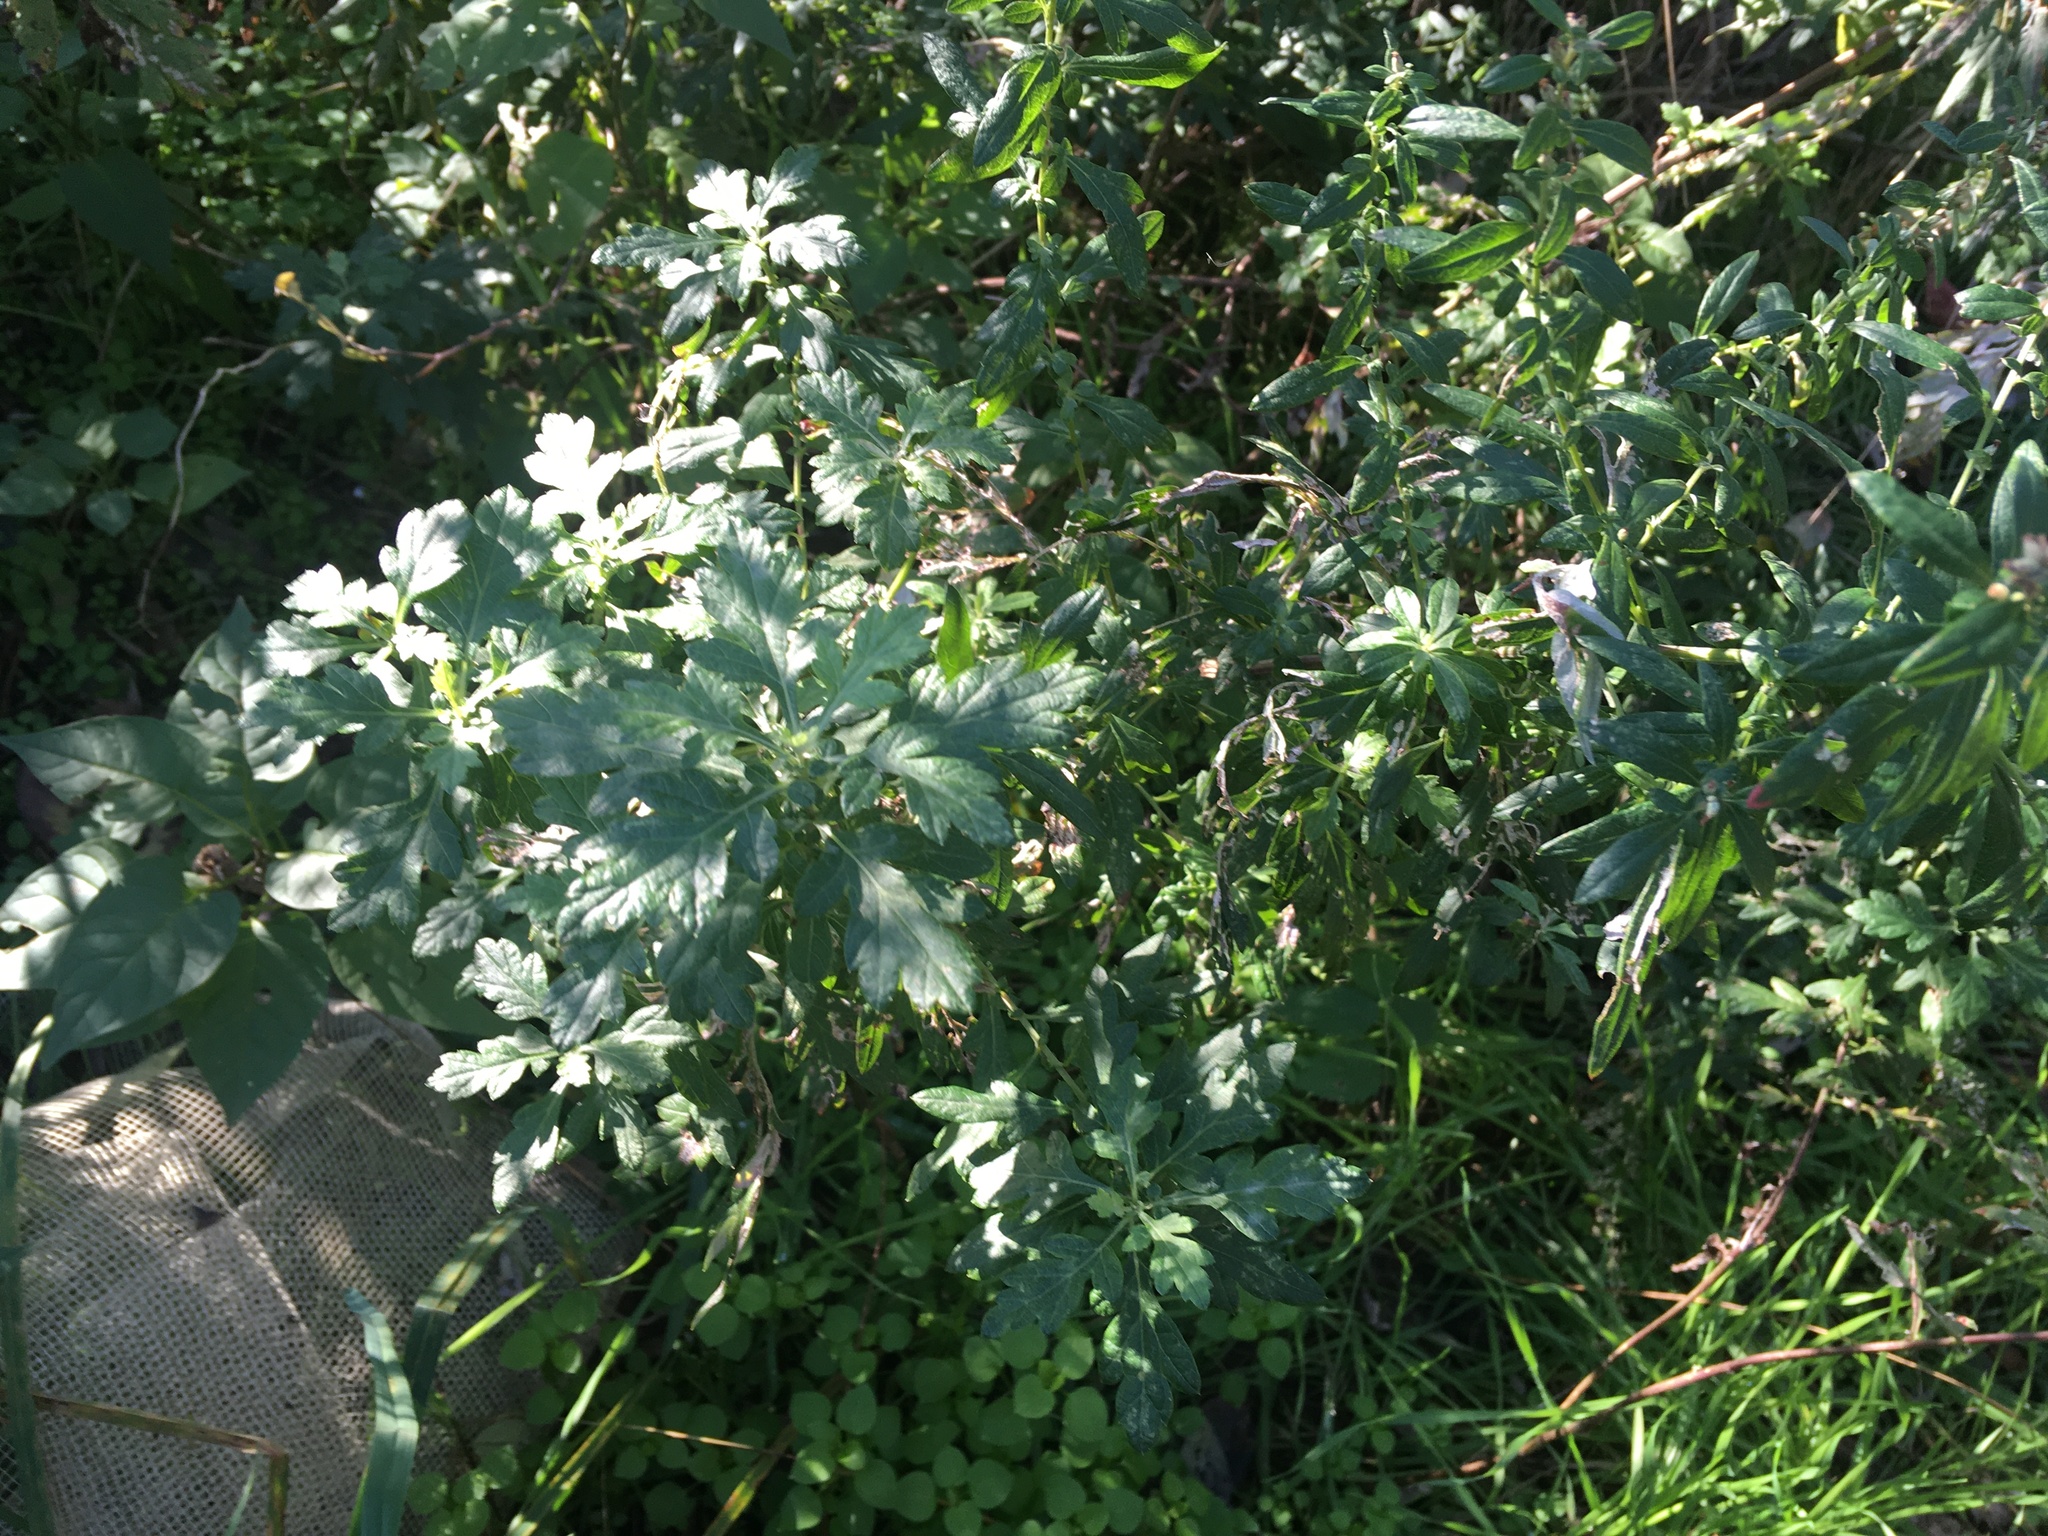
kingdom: Plantae
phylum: Tracheophyta
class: Magnoliopsida
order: Asterales
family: Asteraceae
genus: Artemisia
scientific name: Artemisia vulgaris
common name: Mugwort
